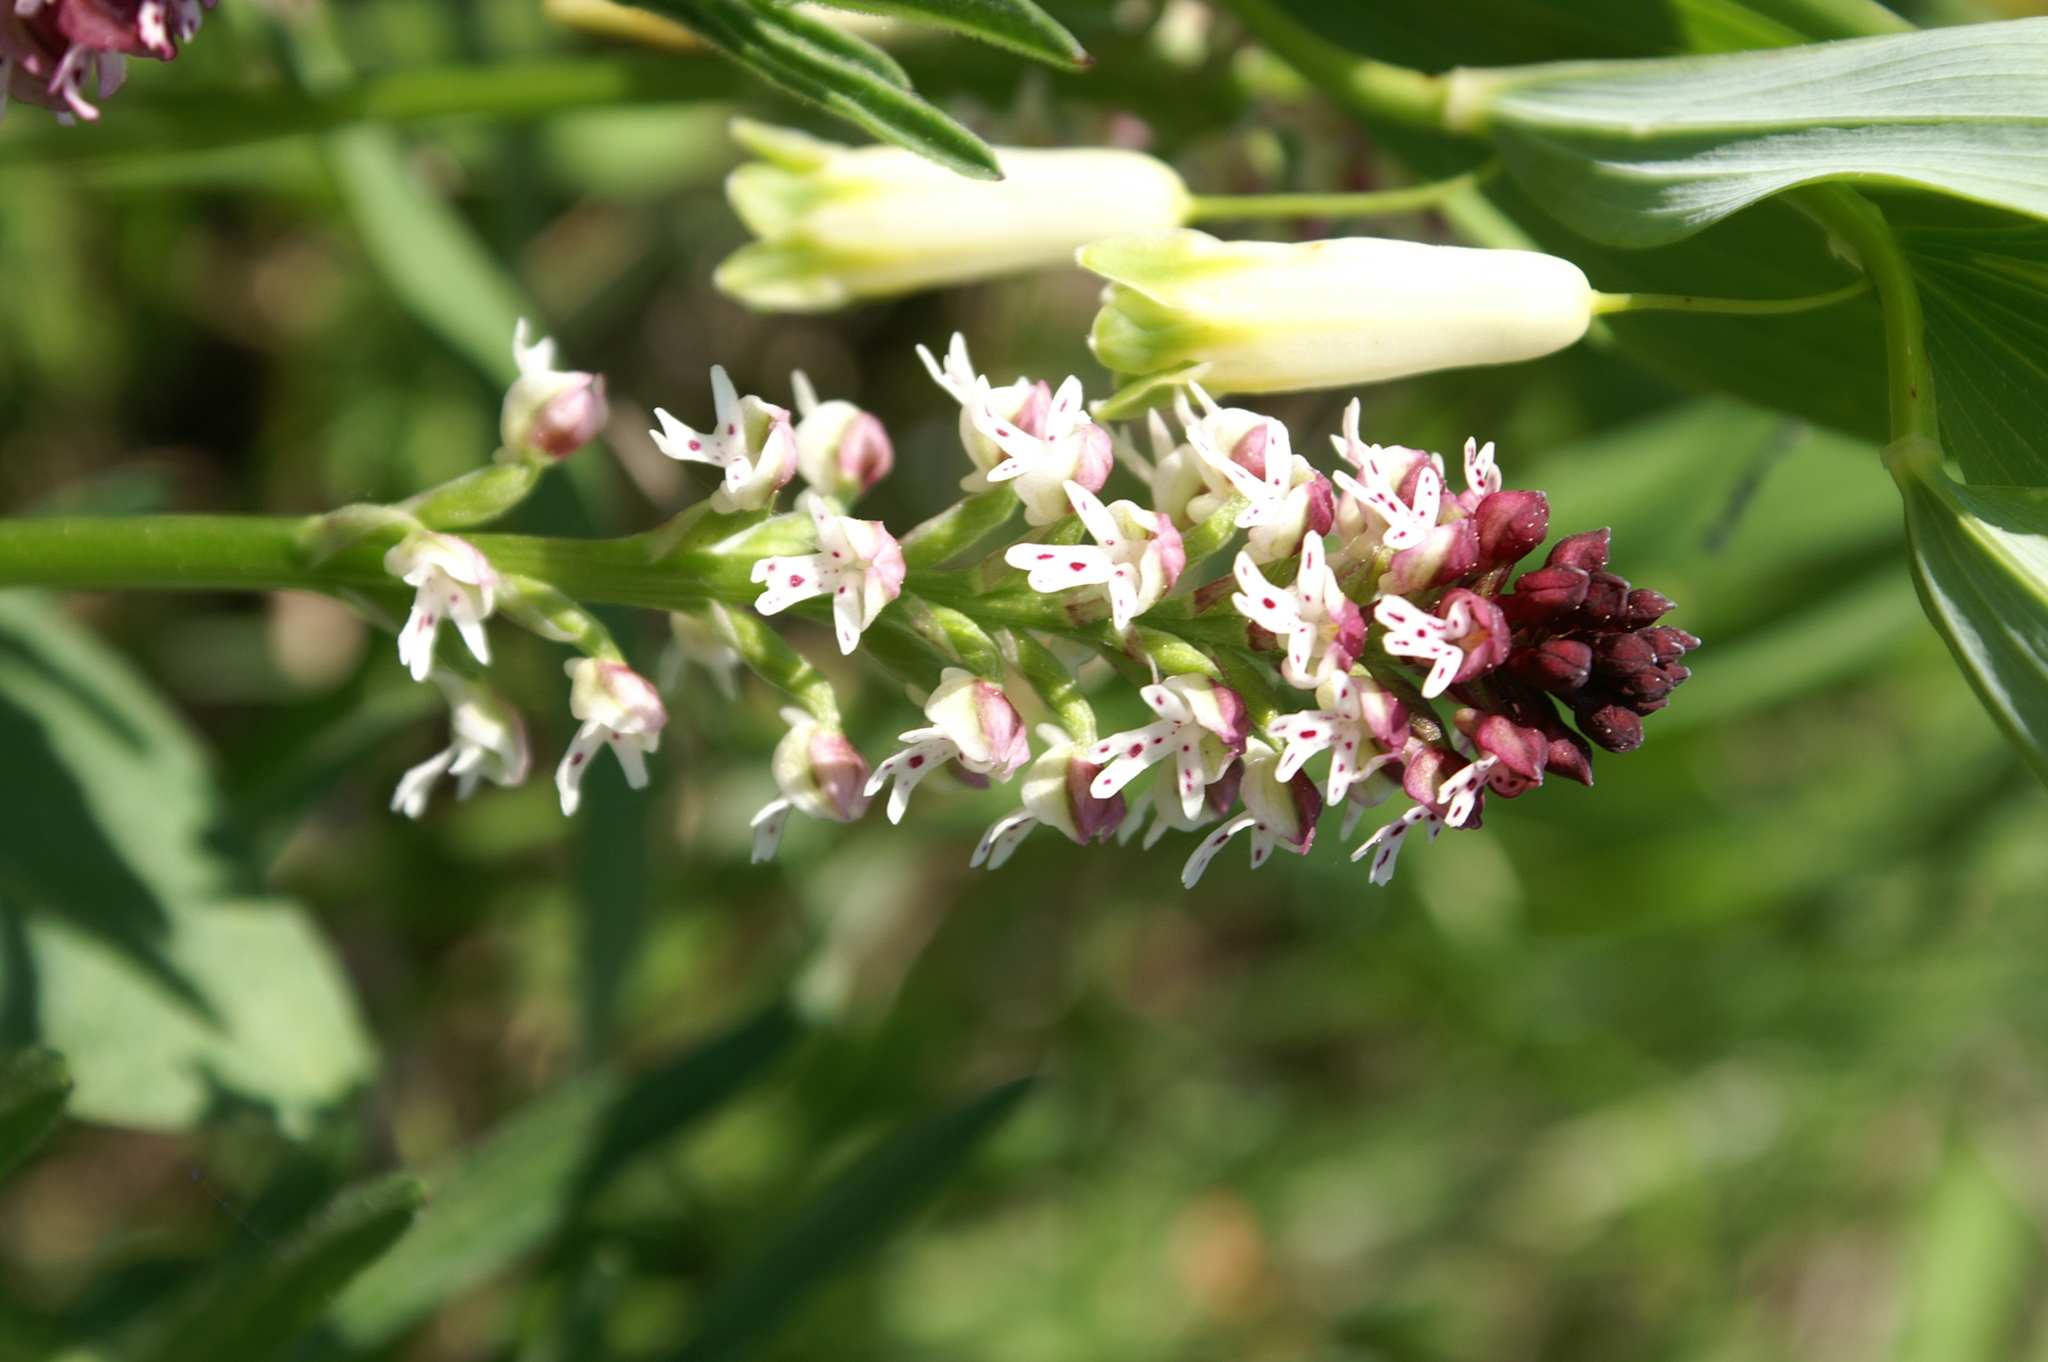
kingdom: Plantae
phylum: Tracheophyta
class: Liliopsida
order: Asparagales
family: Asparagaceae
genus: Polygonatum
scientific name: Polygonatum odoratum
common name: Angular solomon's-seal
